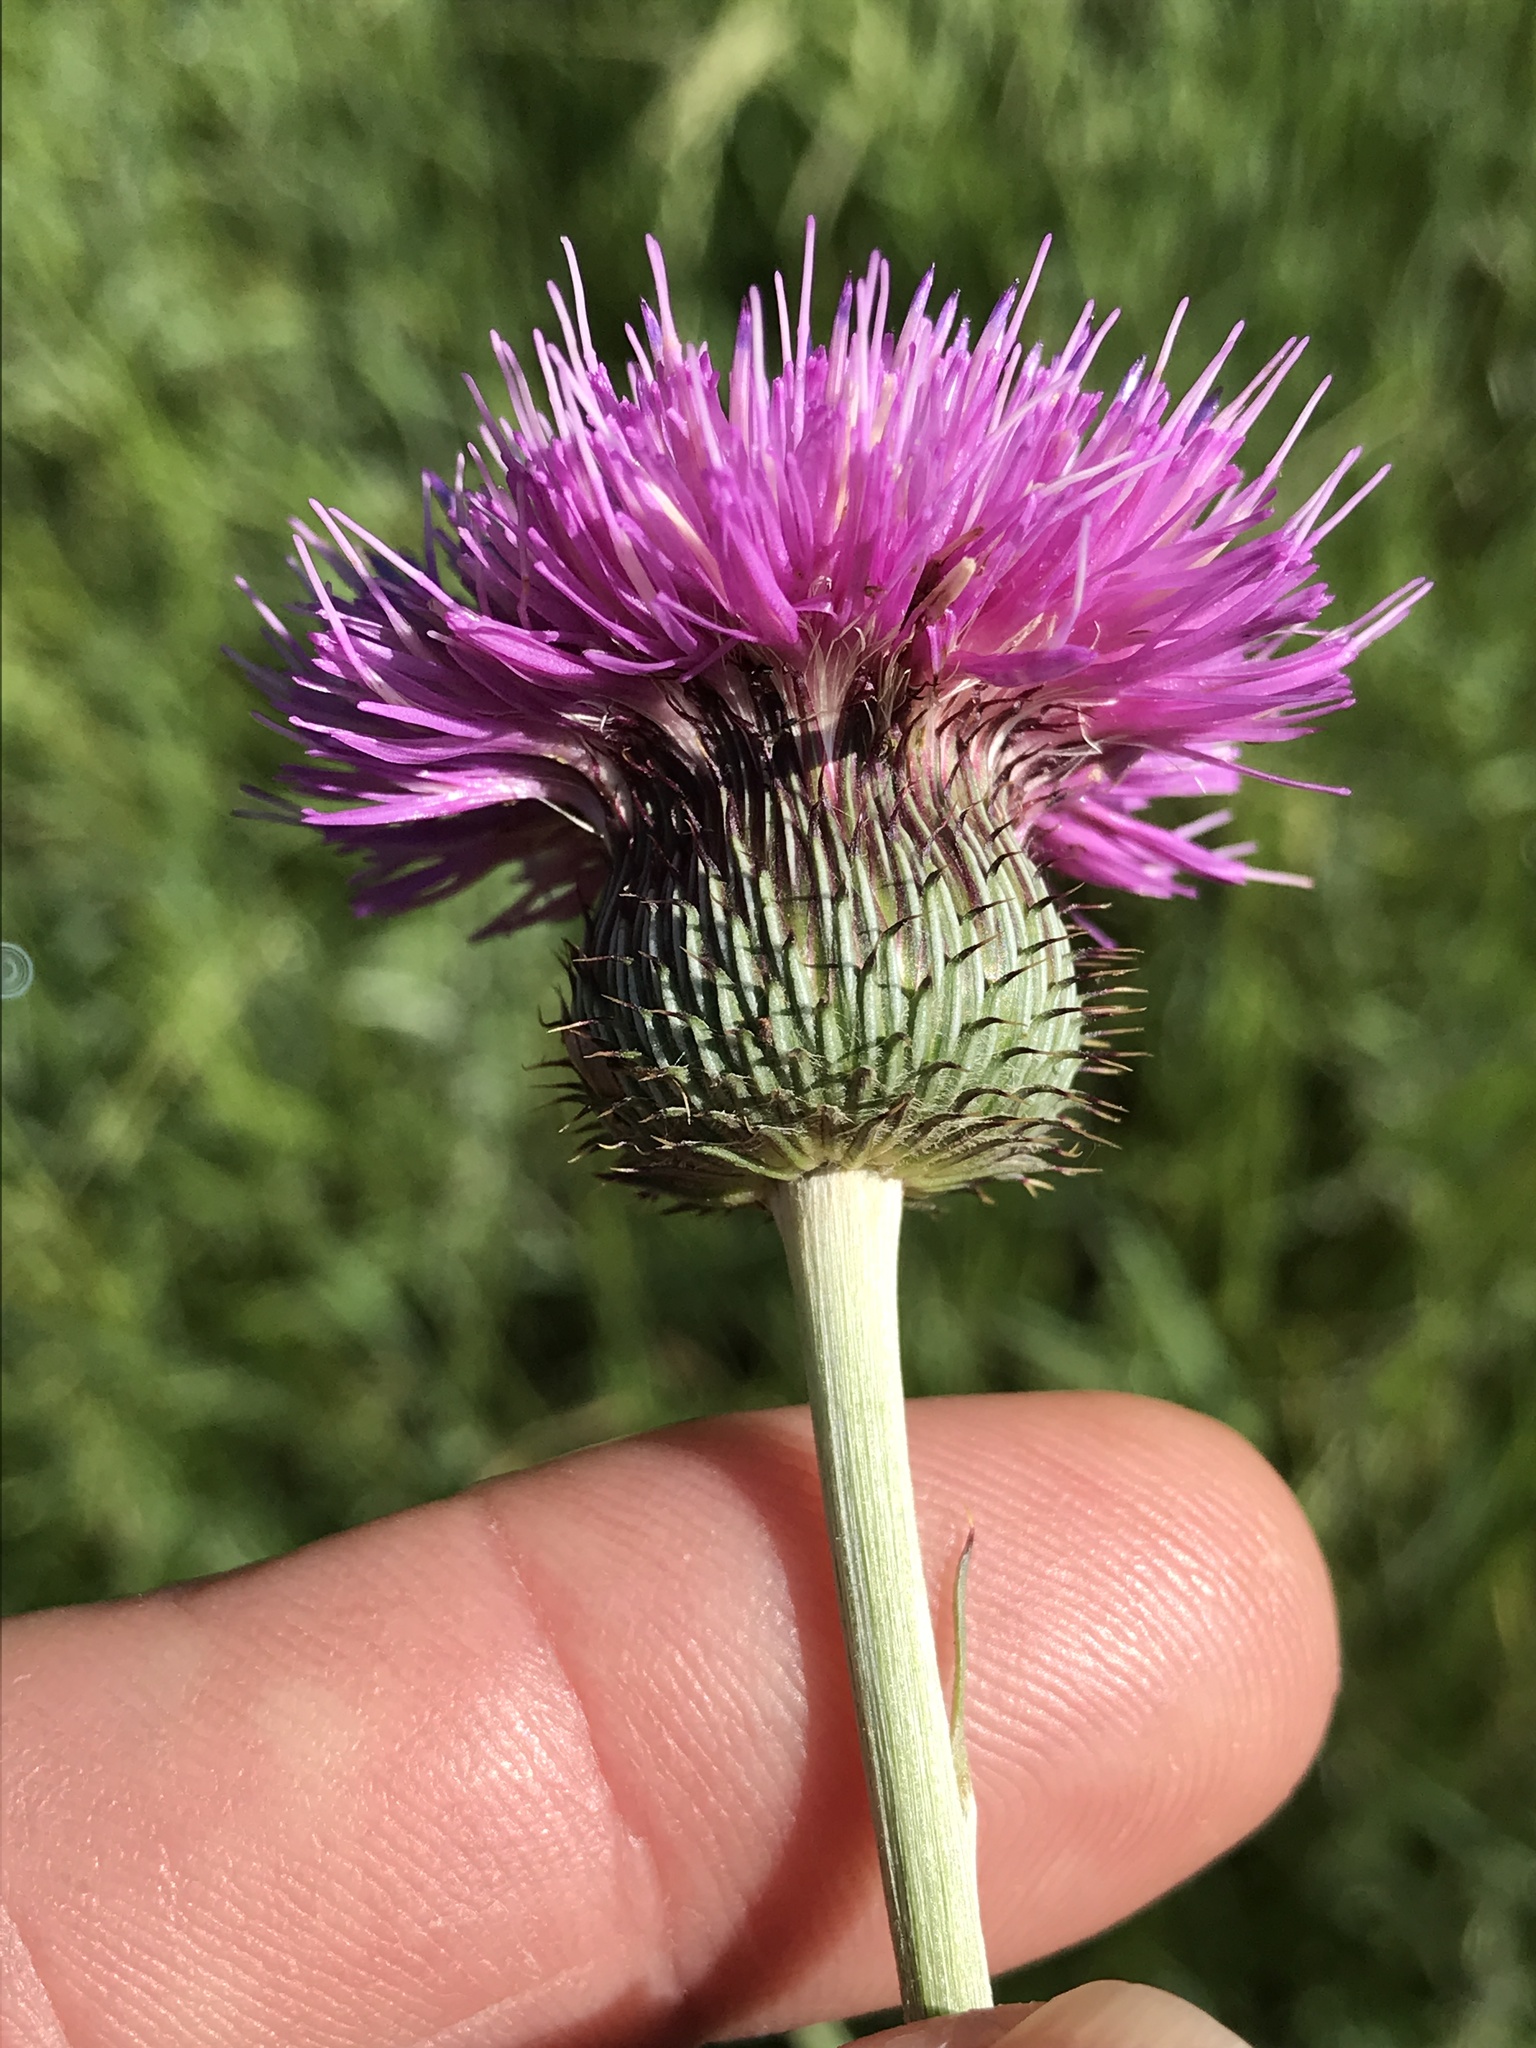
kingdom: Plantae
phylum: Tracheophyta
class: Magnoliopsida
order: Asterales
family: Asteraceae
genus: Cirsium
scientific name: Cirsium texanum
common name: Texas purple thistle
